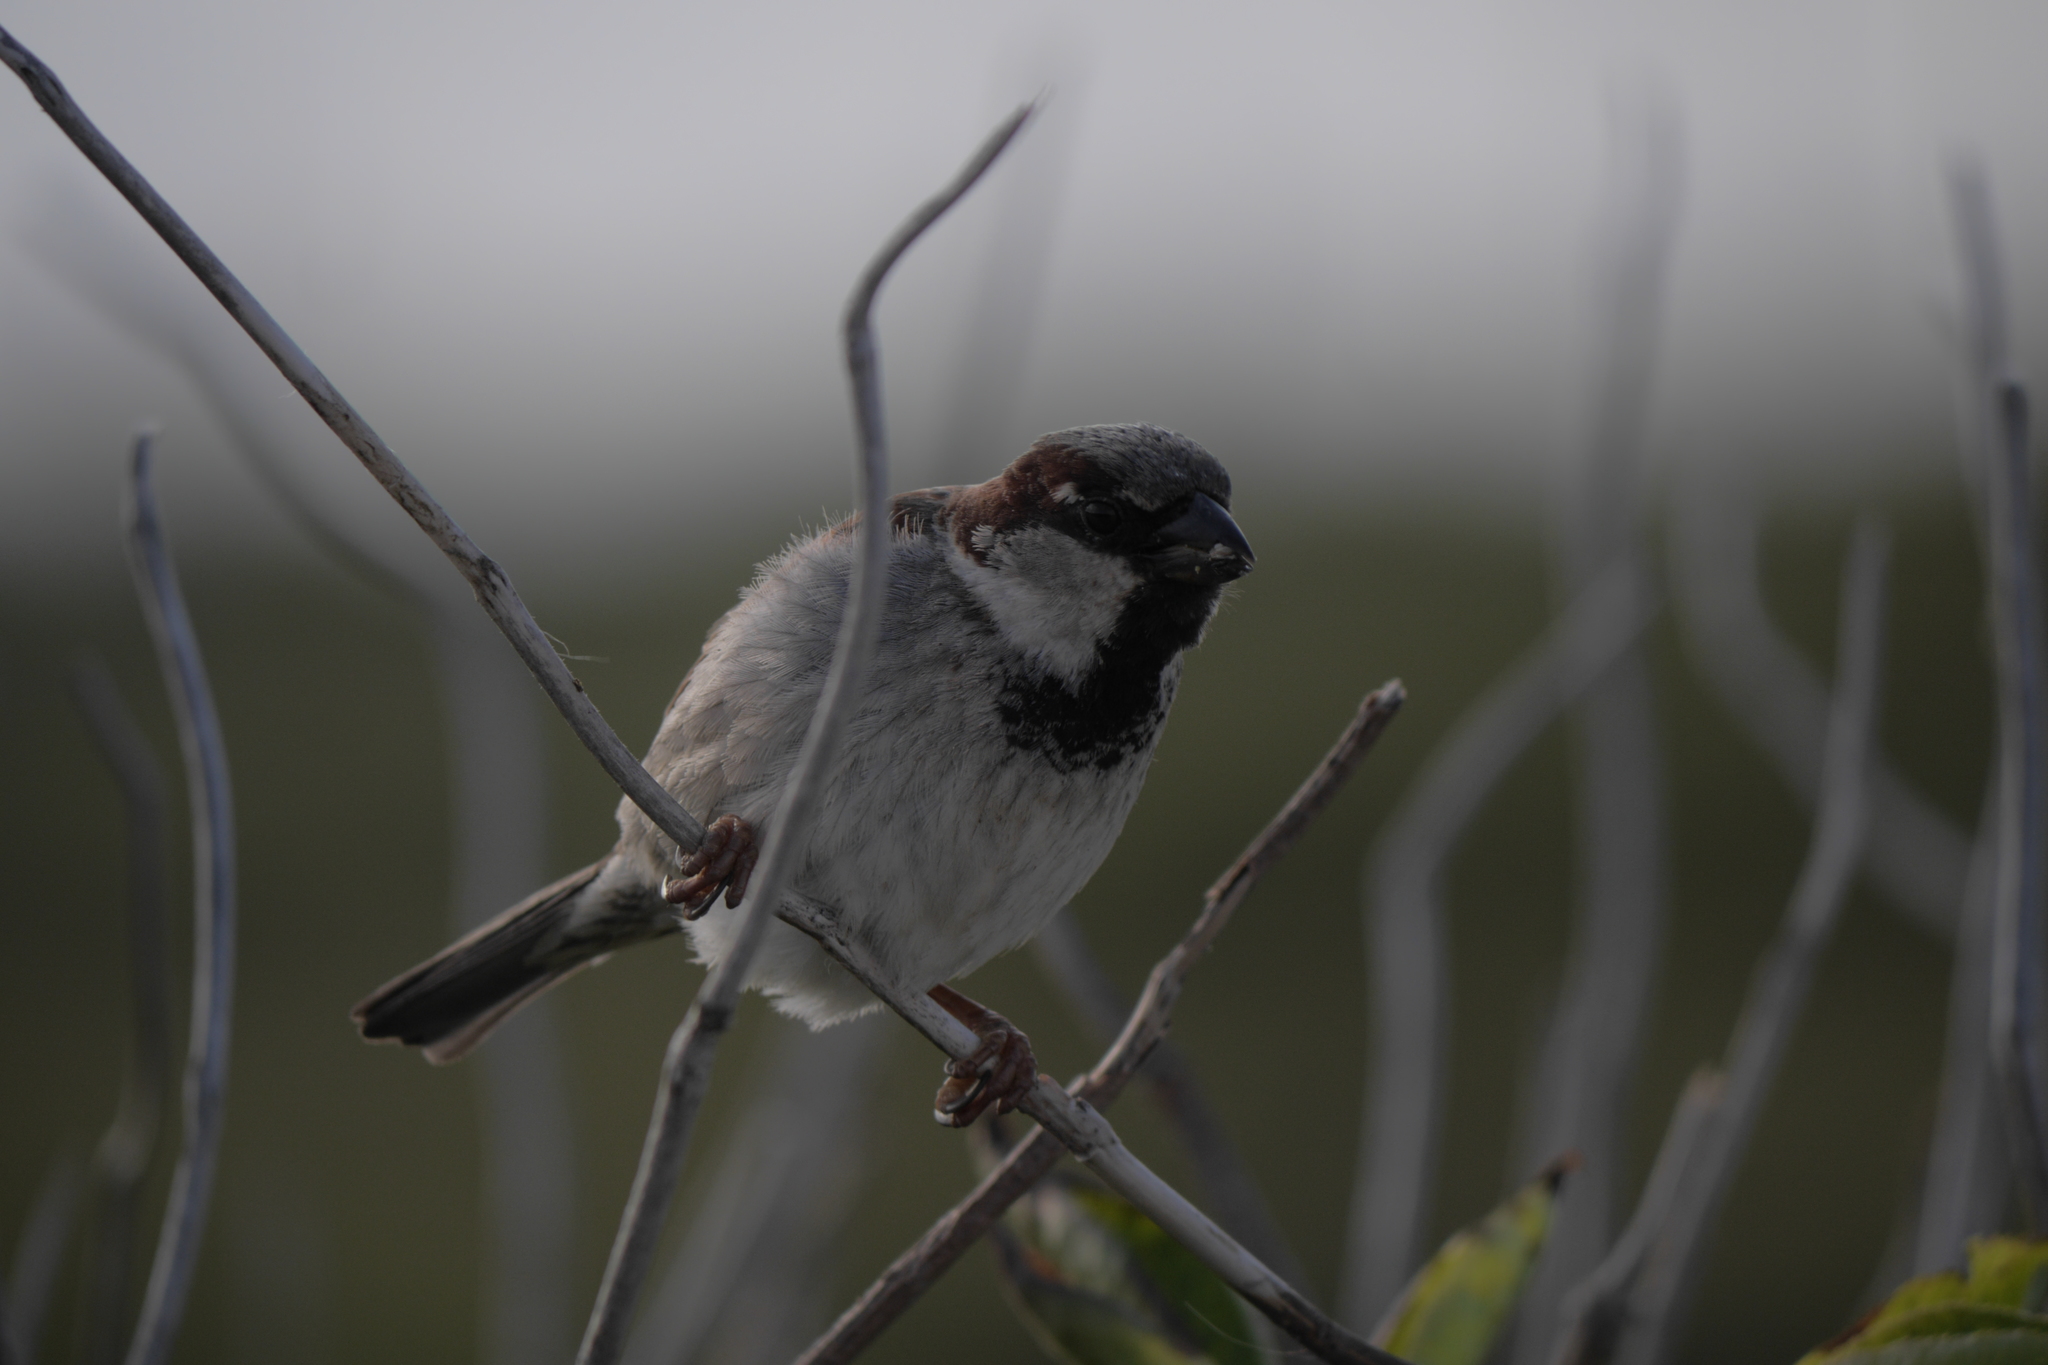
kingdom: Animalia
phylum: Chordata
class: Aves
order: Passeriformes
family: Passeridae
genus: Passer
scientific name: Passer domesticus
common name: House sparrow
